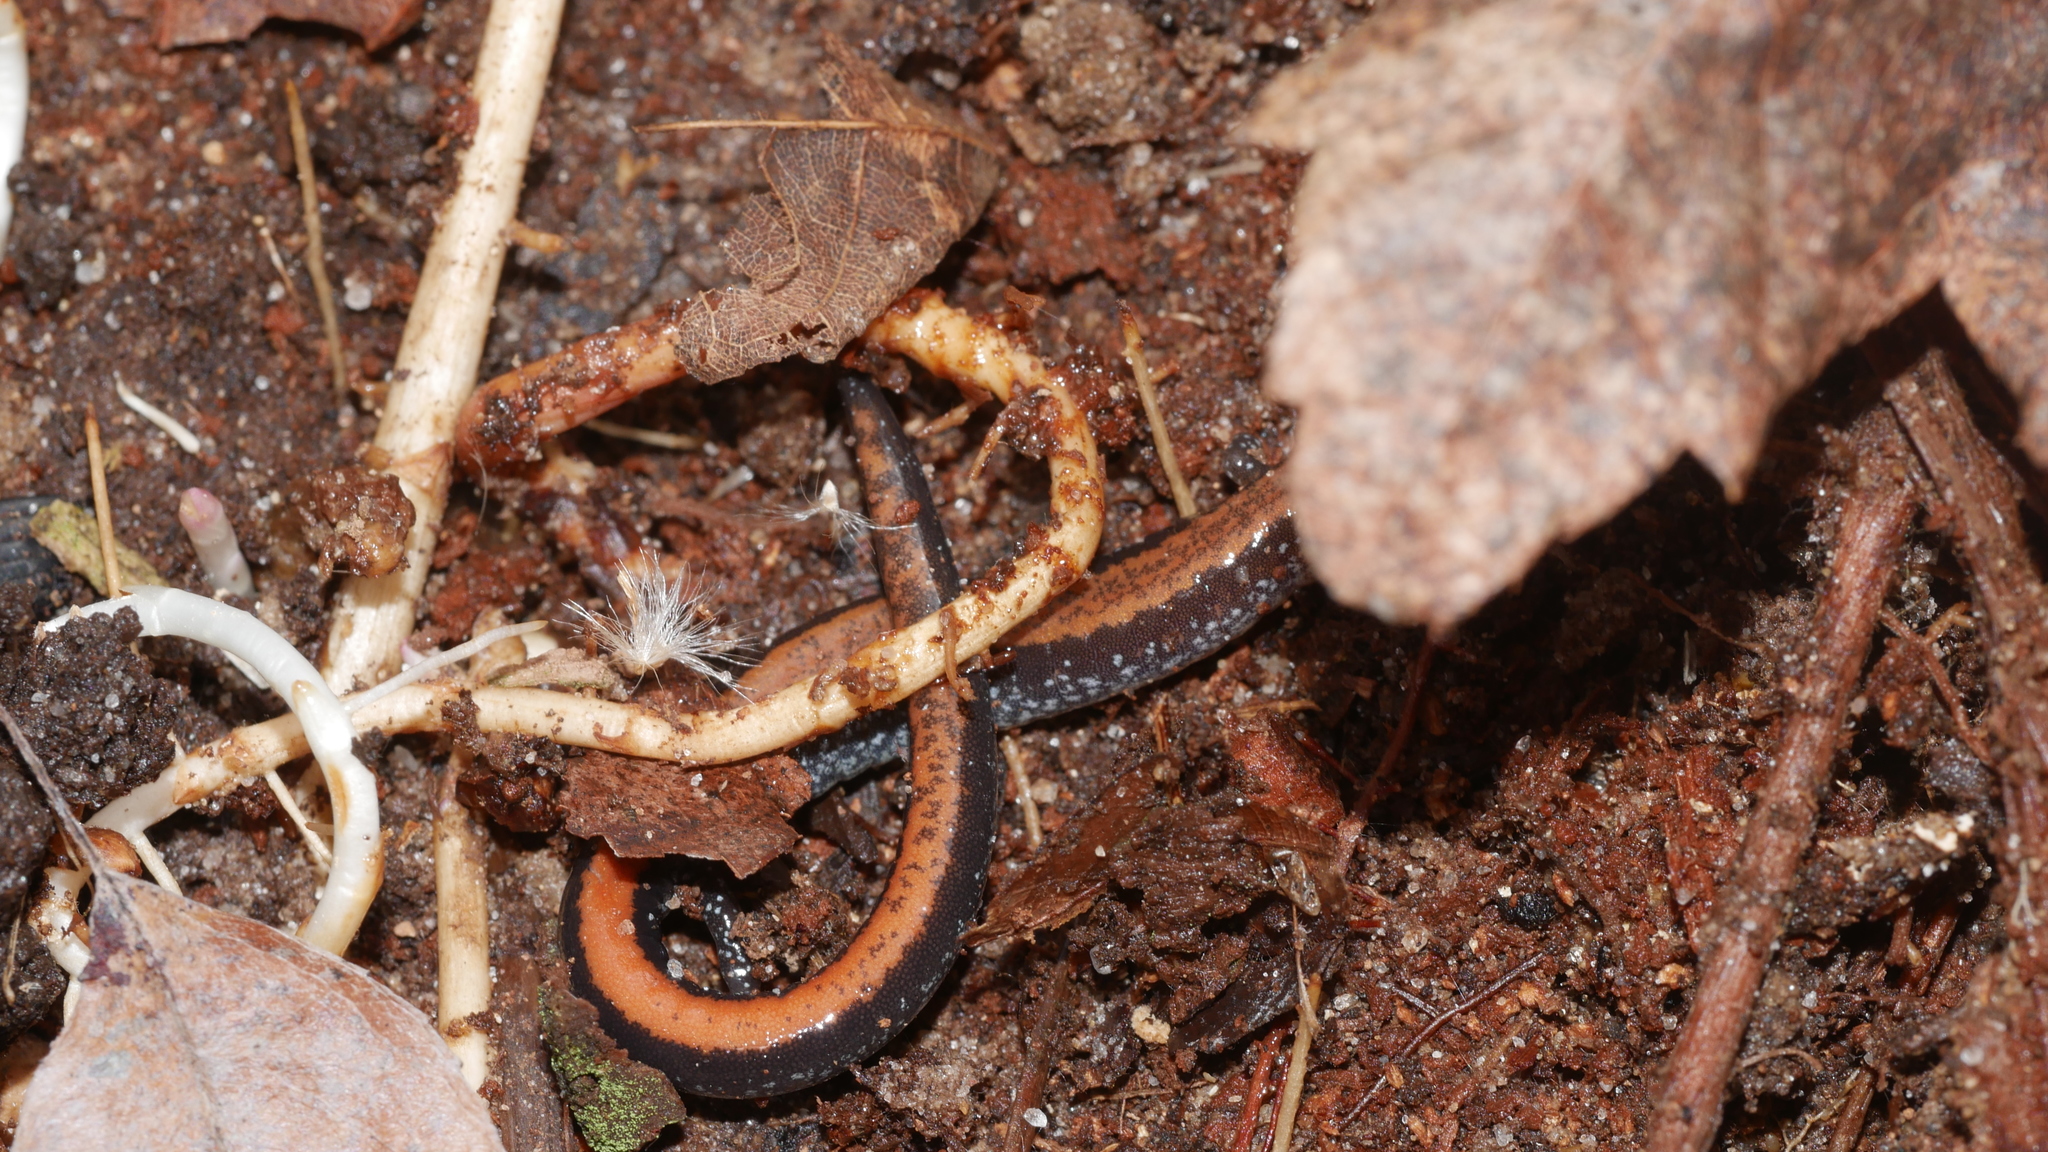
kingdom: Animalia
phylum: Chordata
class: Amphibia
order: Caudata
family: Plethodontidae
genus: Plethodon
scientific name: Plethodon cinereus
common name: Redback salamander
